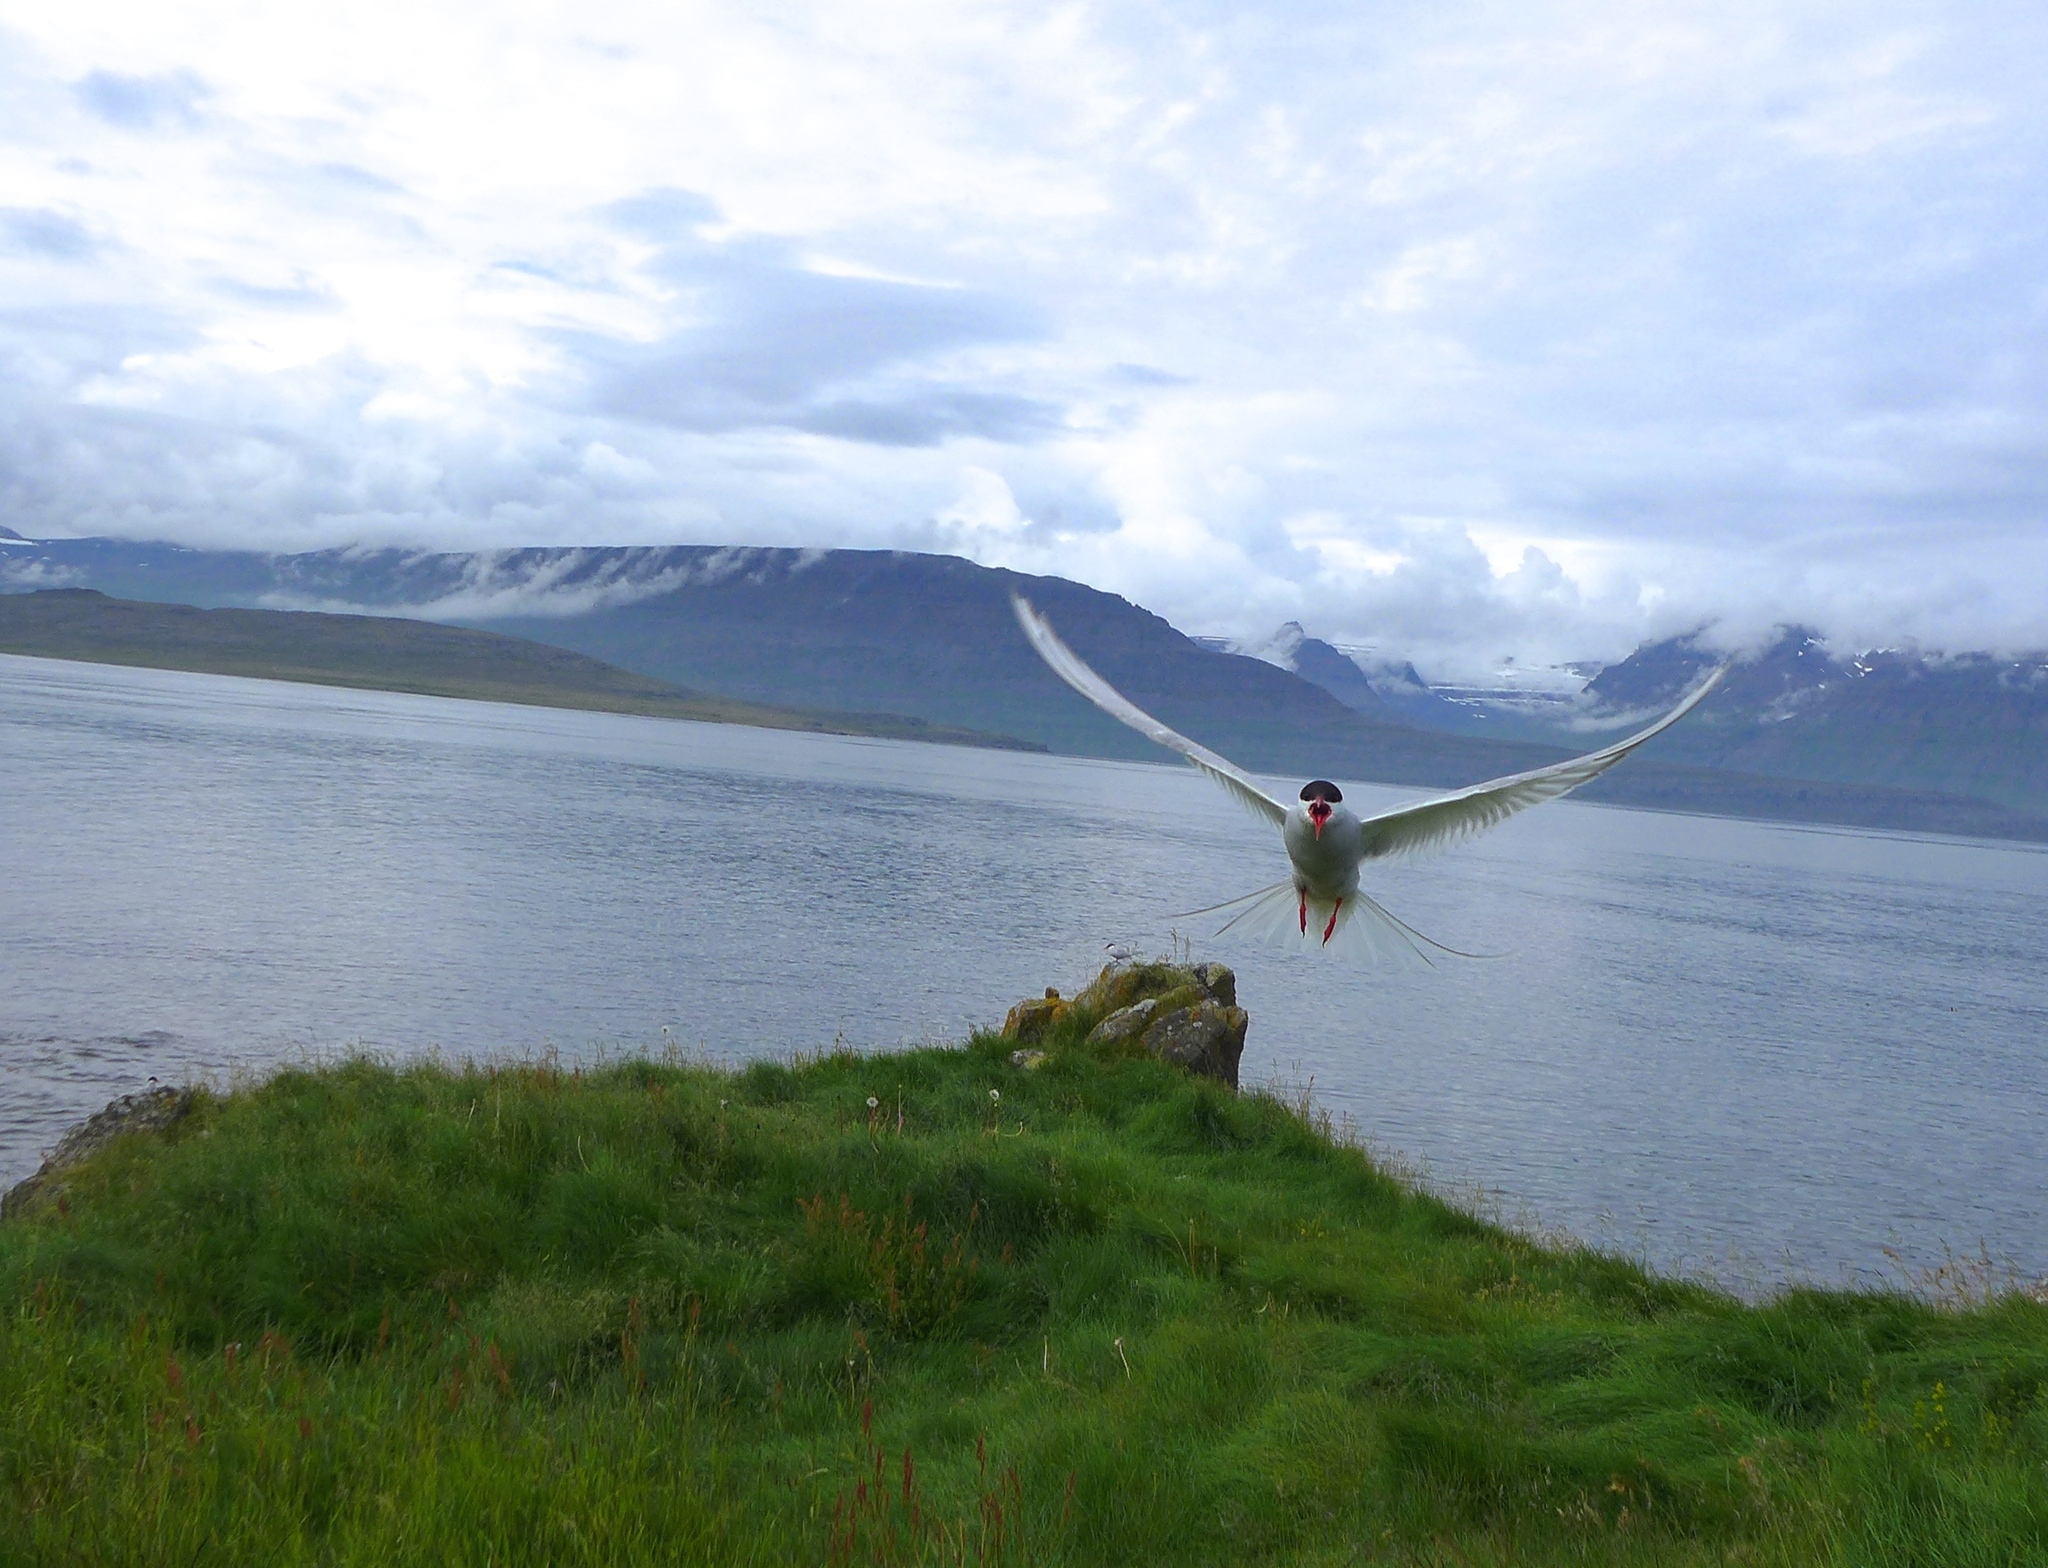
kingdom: Animalia
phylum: Chordata
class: Aves
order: Charadriiformes
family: Laridae
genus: Sterna
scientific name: Sterna paradisaea
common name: Arctic tern
